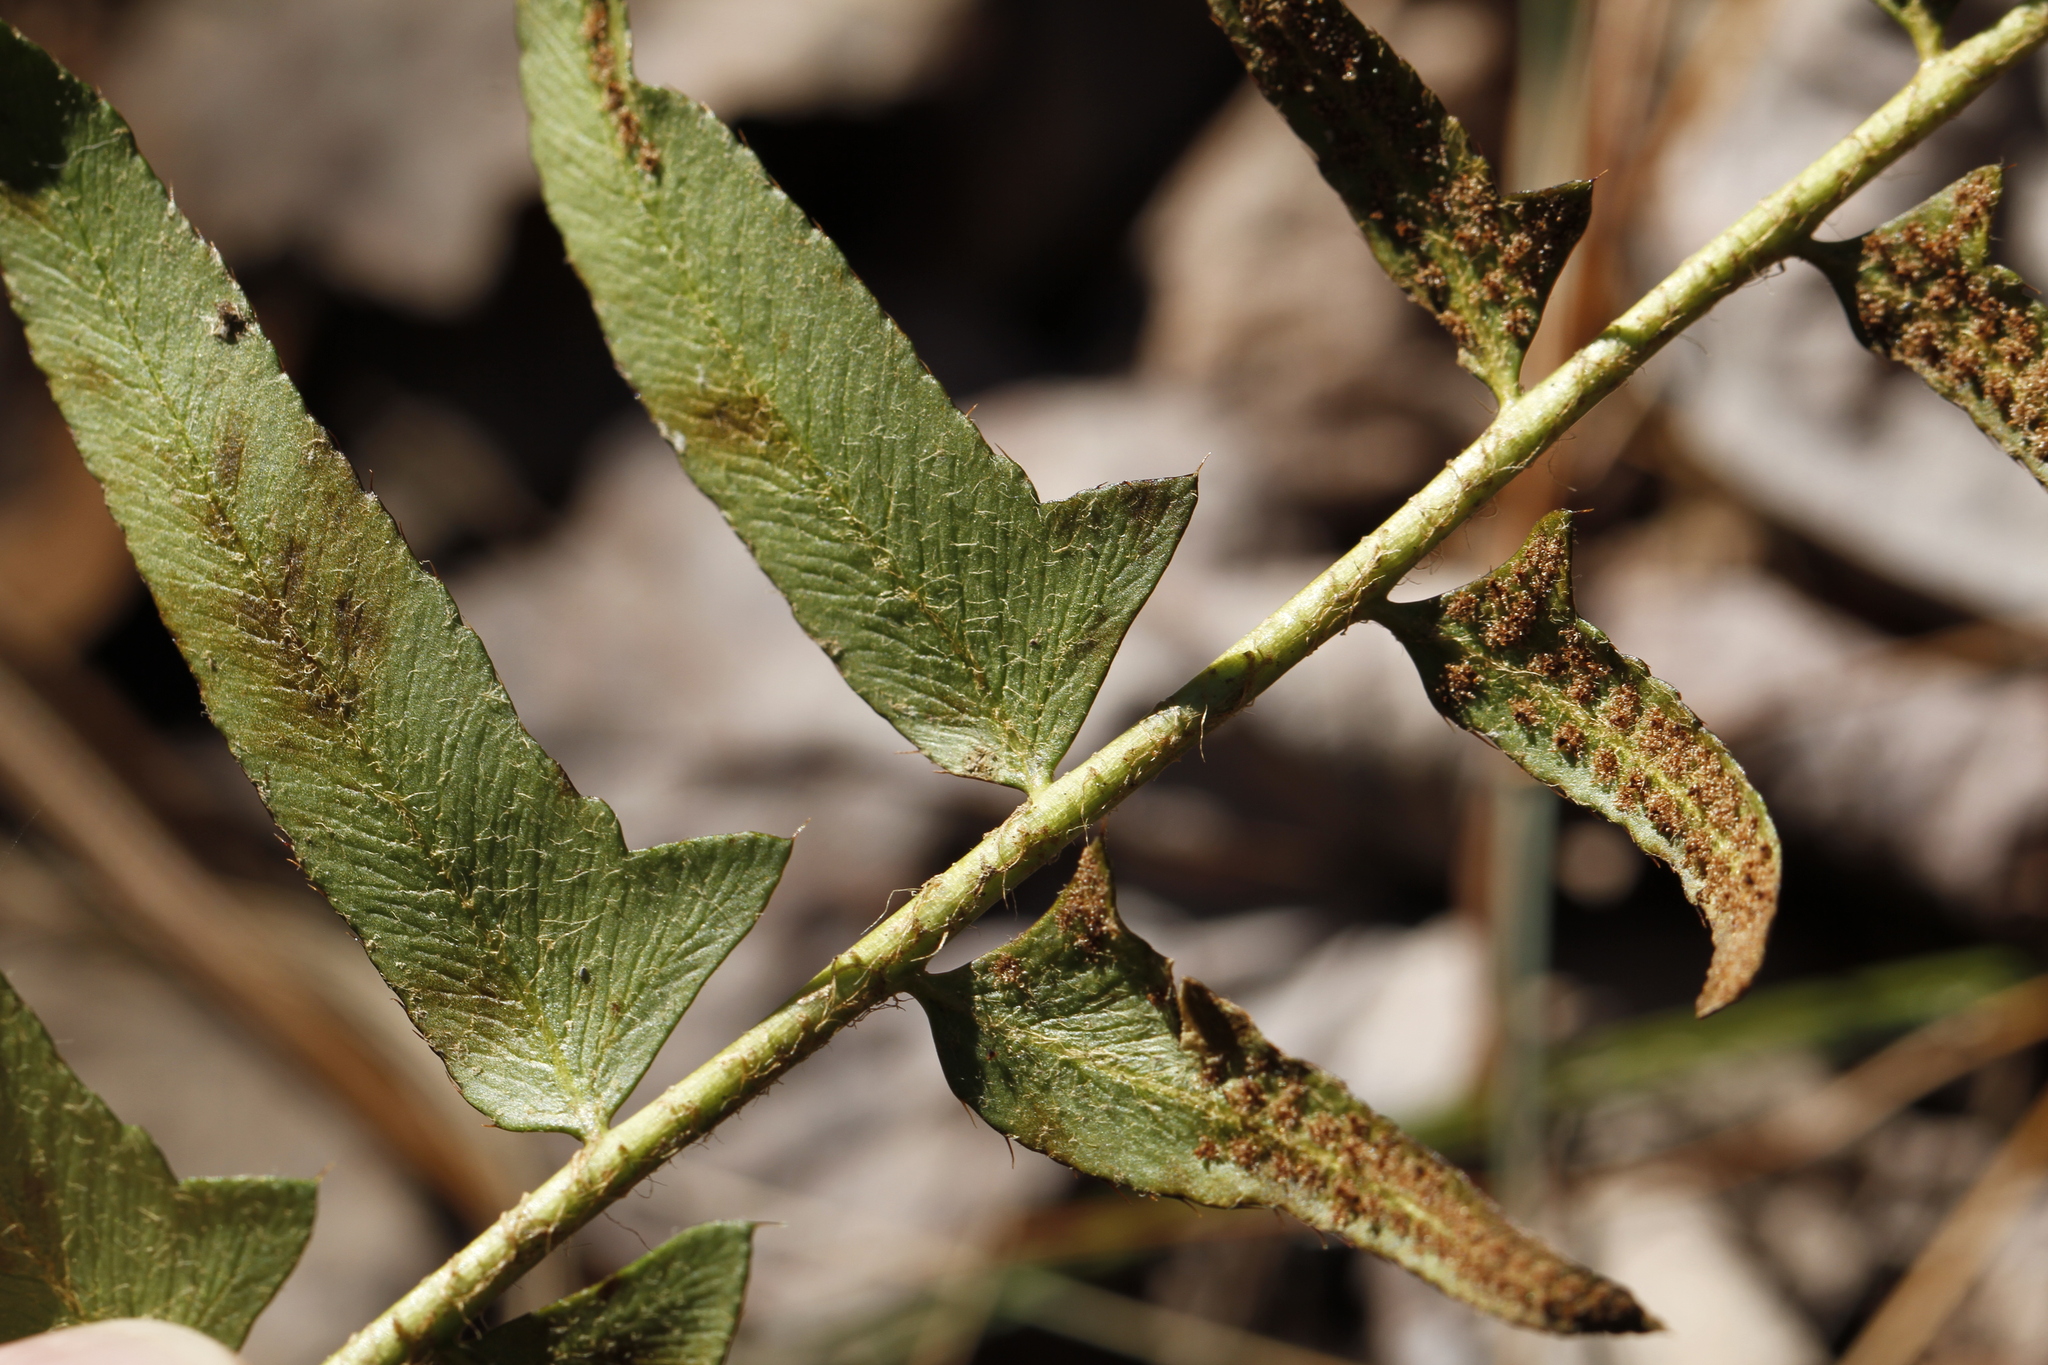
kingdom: Plantae
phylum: Tracheophyta
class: Polypodiopsida
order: Polypodiales
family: Dryopteridaceae
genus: Polystichum
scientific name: Polystichum acrostichoides
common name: Christmas fern
